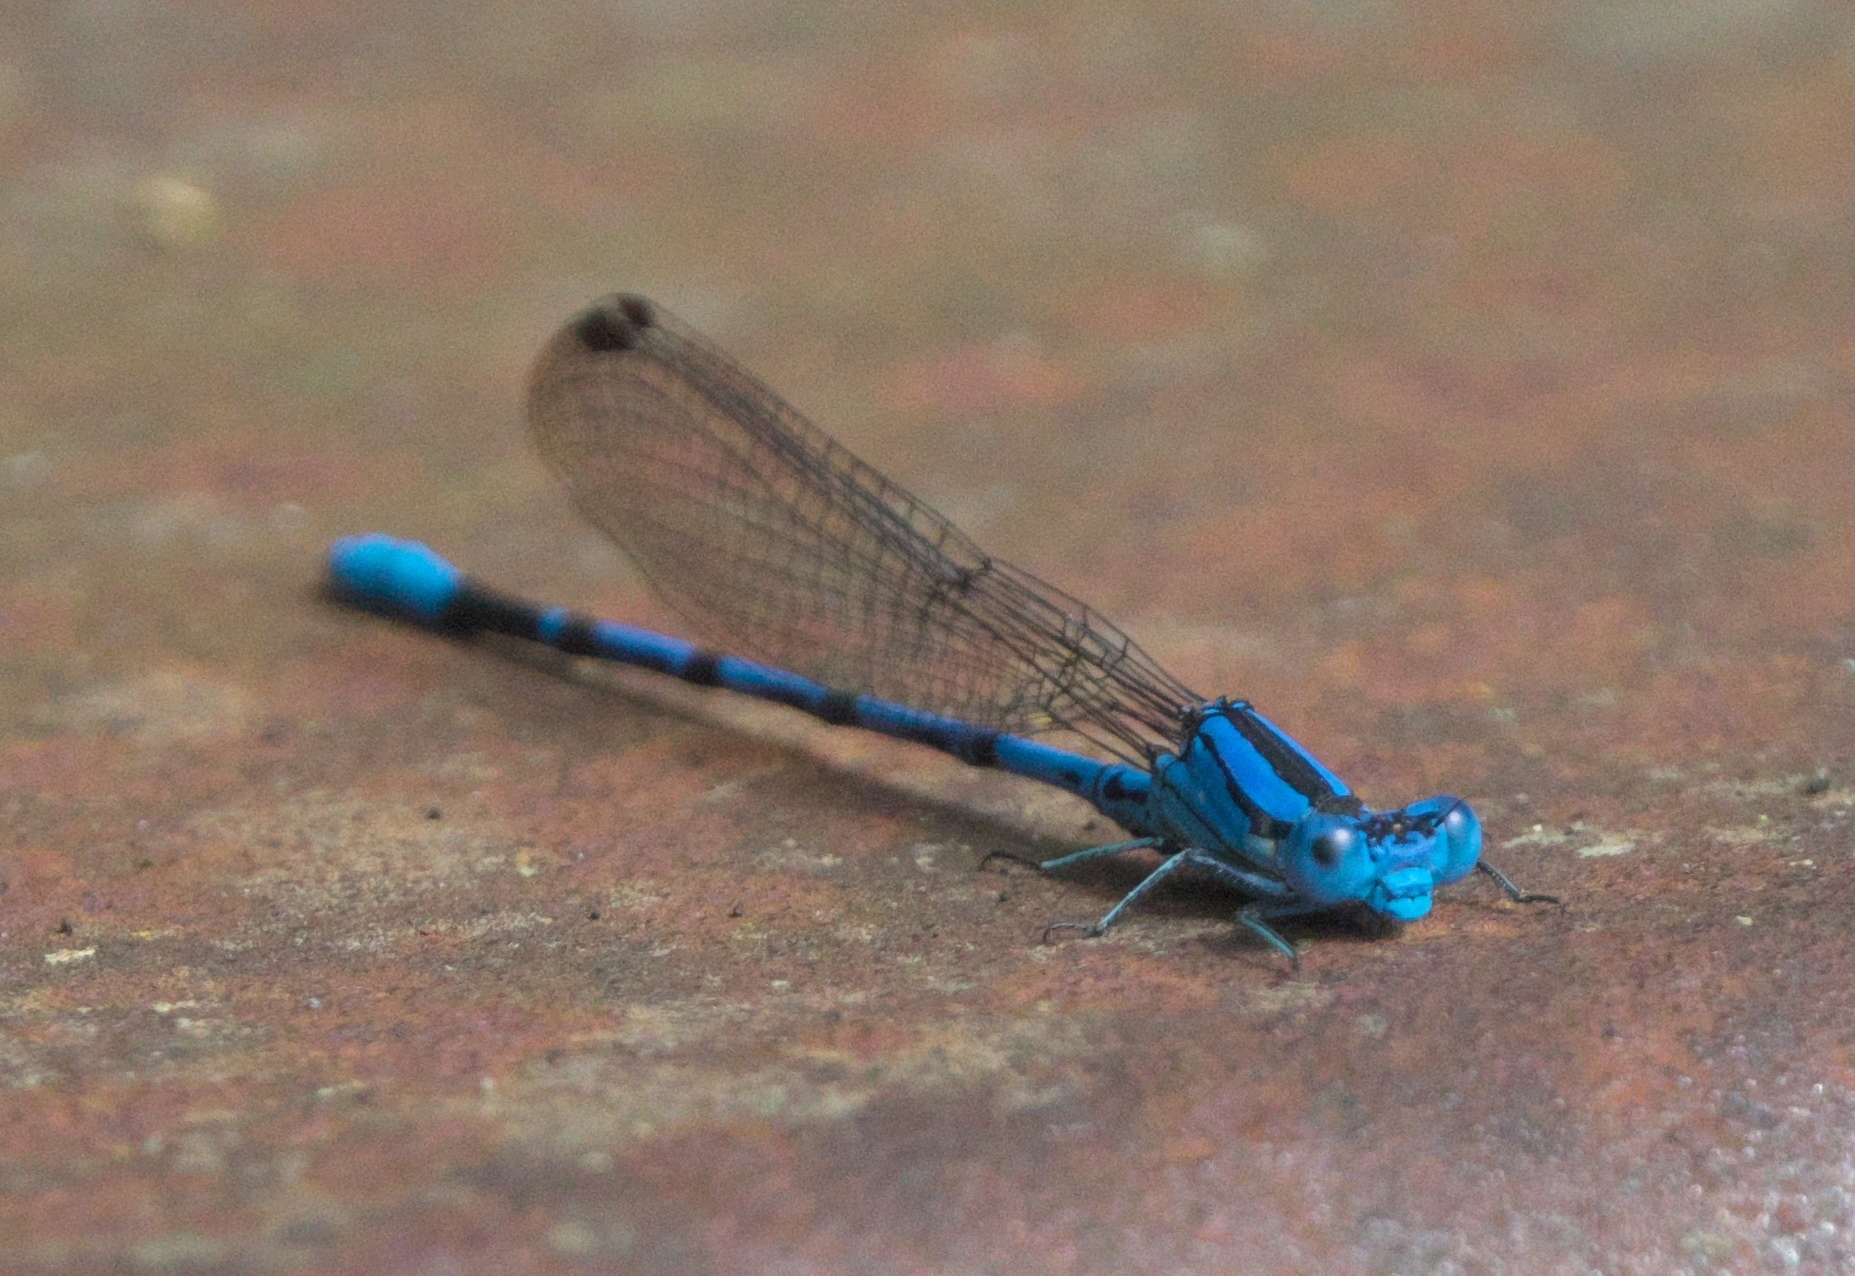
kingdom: Animalia
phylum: Arthropoda
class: Insecta
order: Odonata
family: Coenagrionidae
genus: Argia
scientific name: Argia funebris
